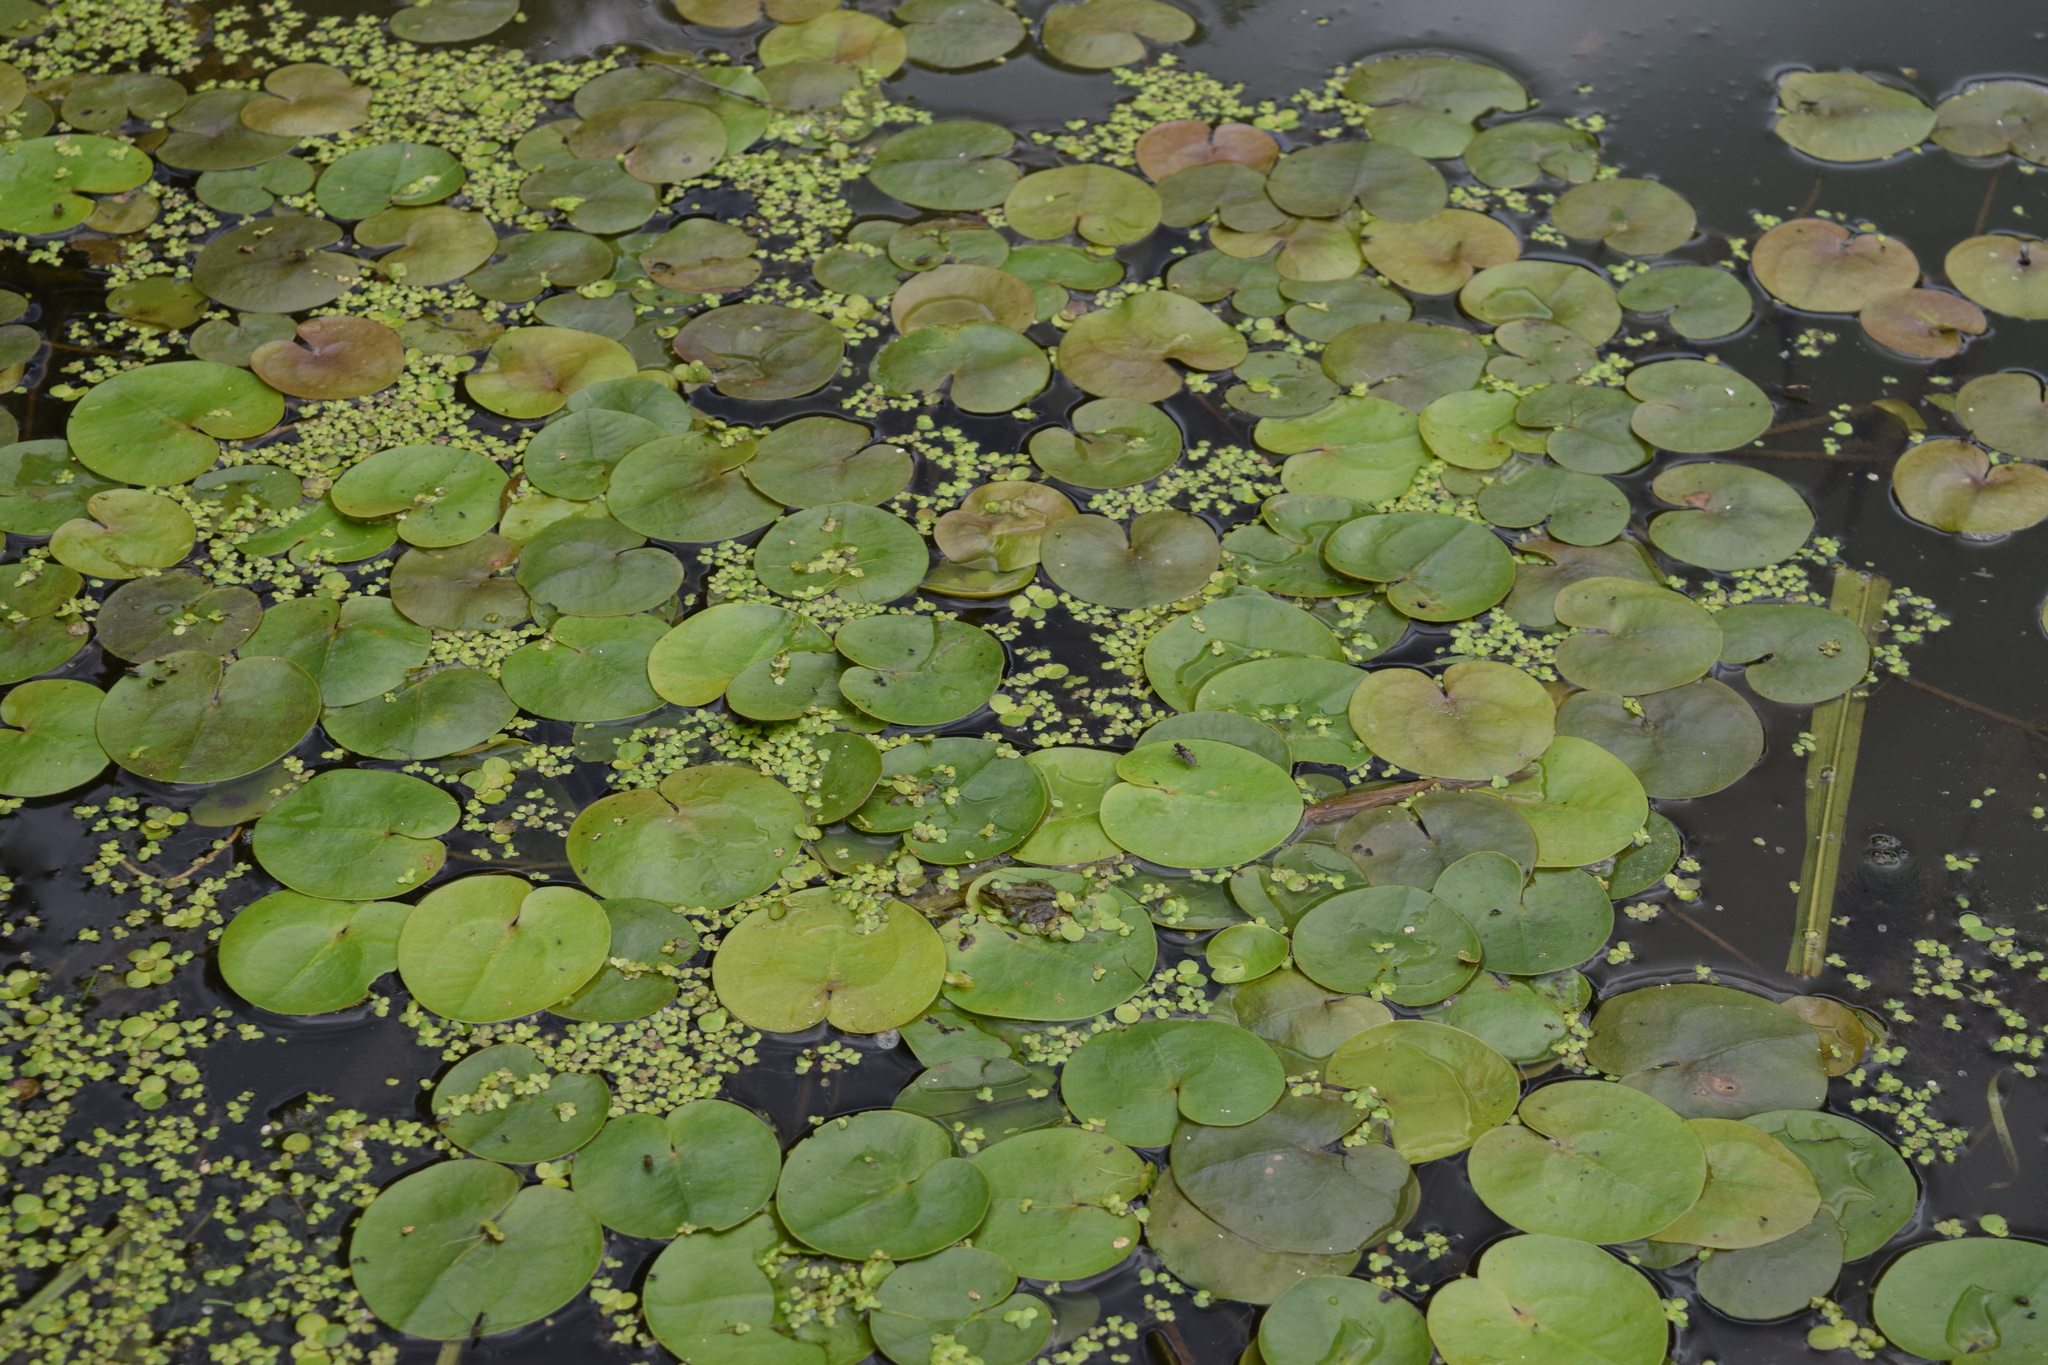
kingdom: Plantae
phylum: Tracheophyta
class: Liliopsida
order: Alismatales
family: Hydrocharitaceae
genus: Hydrocharis
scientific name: Hydrocharis morsus-ranae
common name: Frogbit
